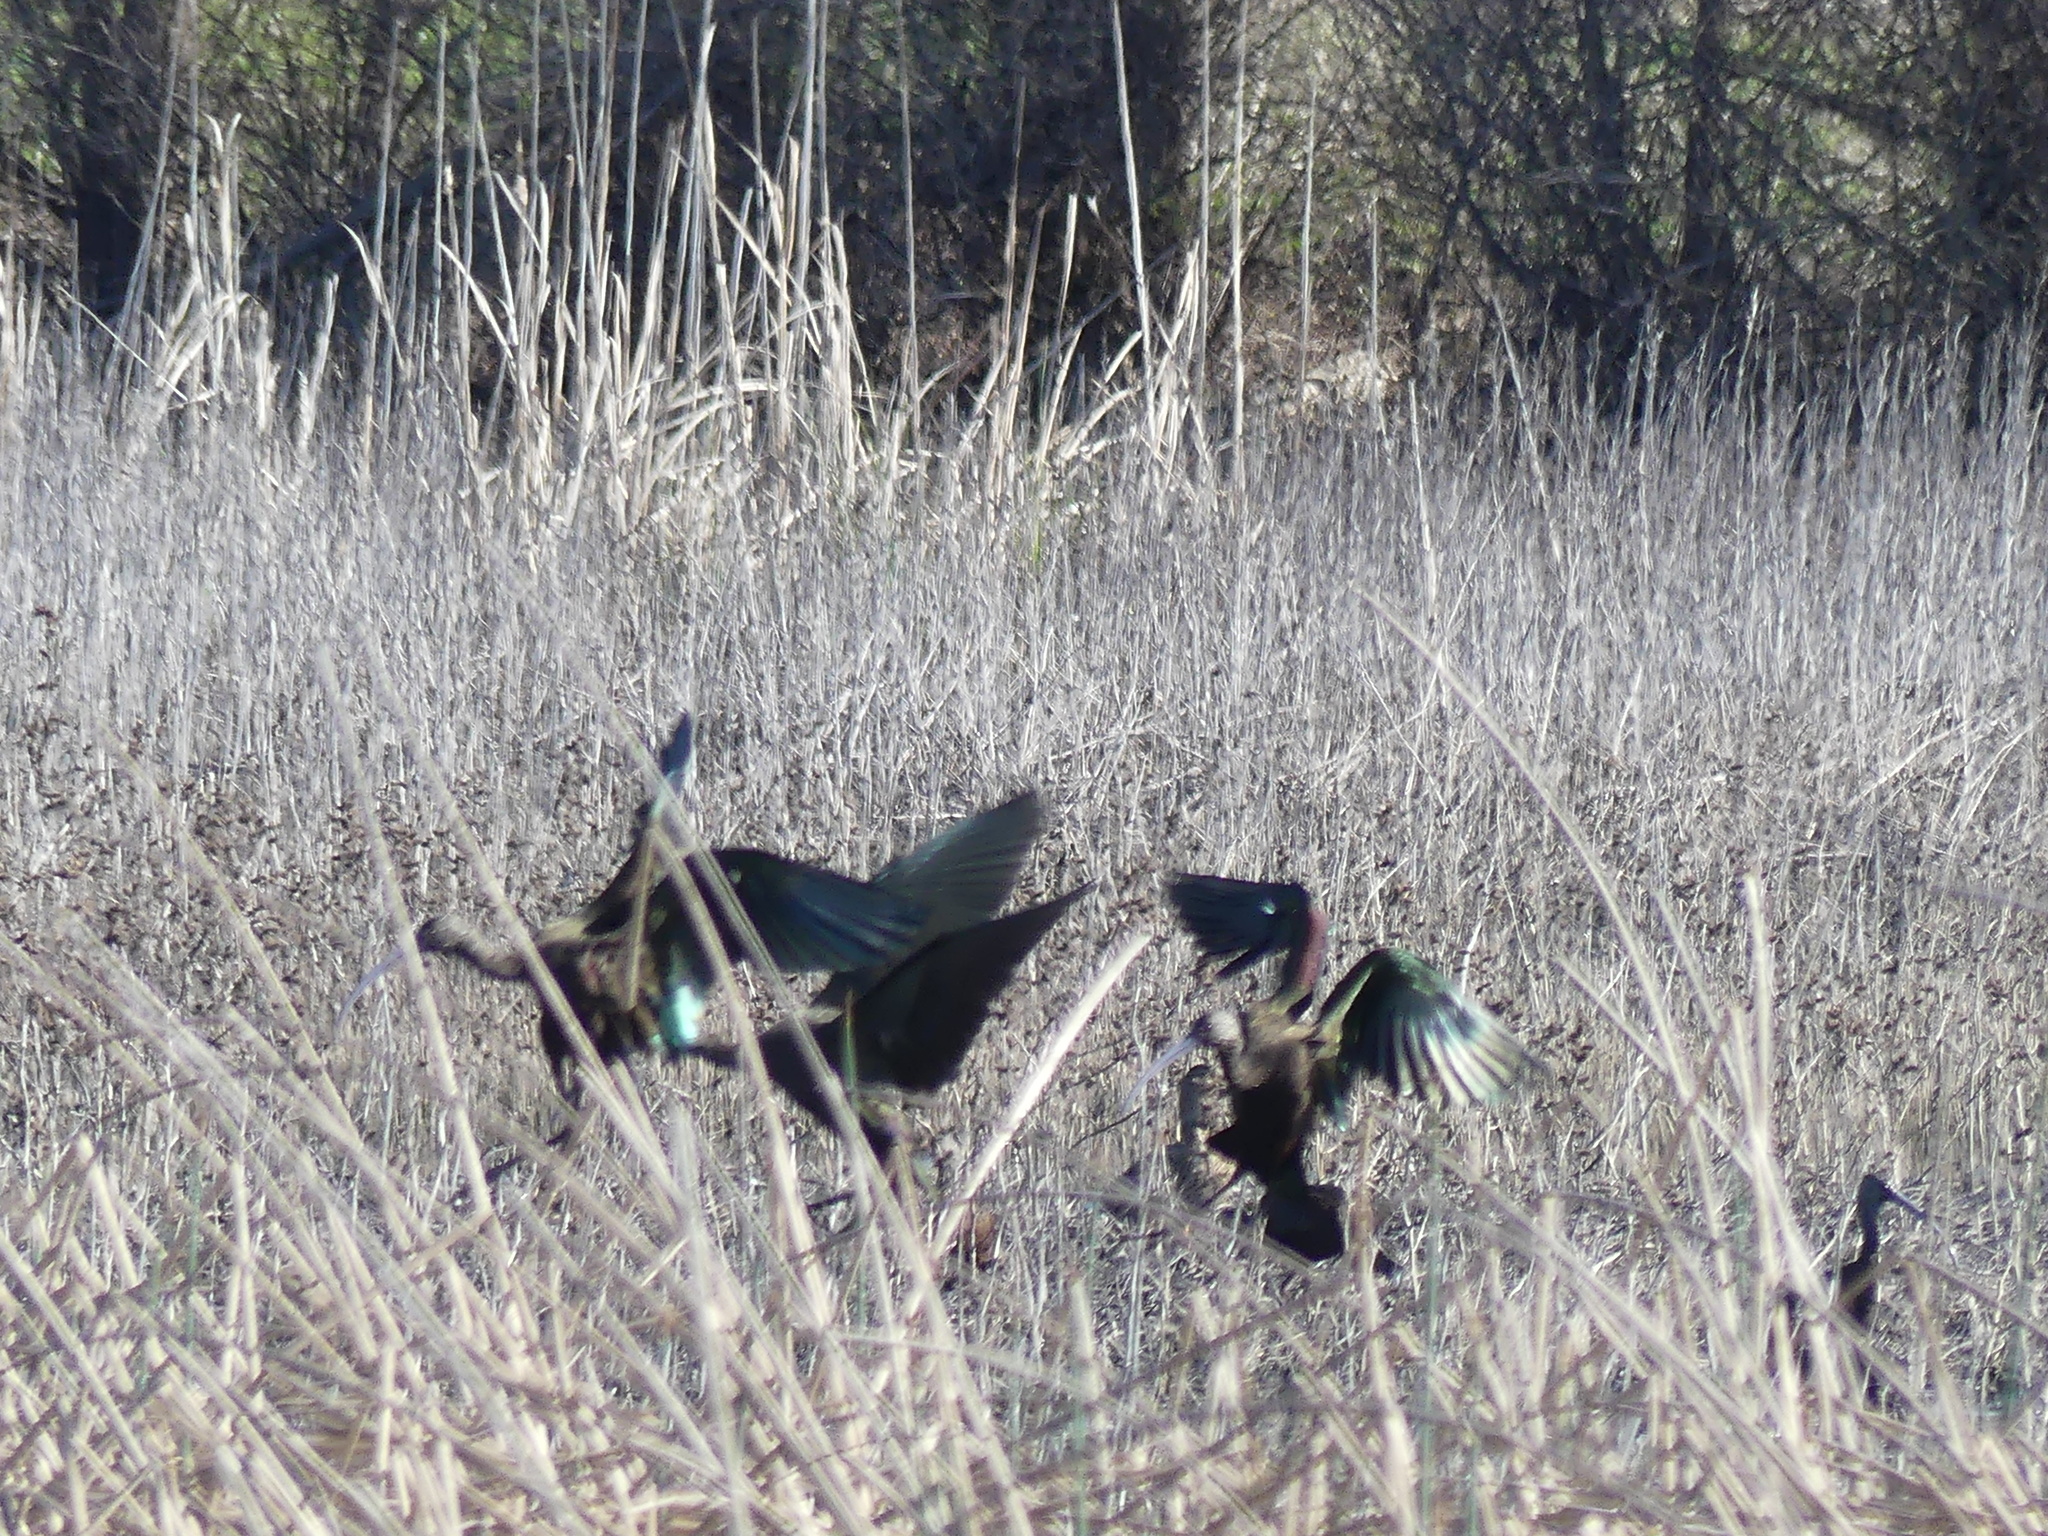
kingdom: Animalia
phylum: Chordata
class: Aves
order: Pelecaniformes
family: Threskiornithidae
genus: Plegadis
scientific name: Plegadis chihi
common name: White-faced ibis
